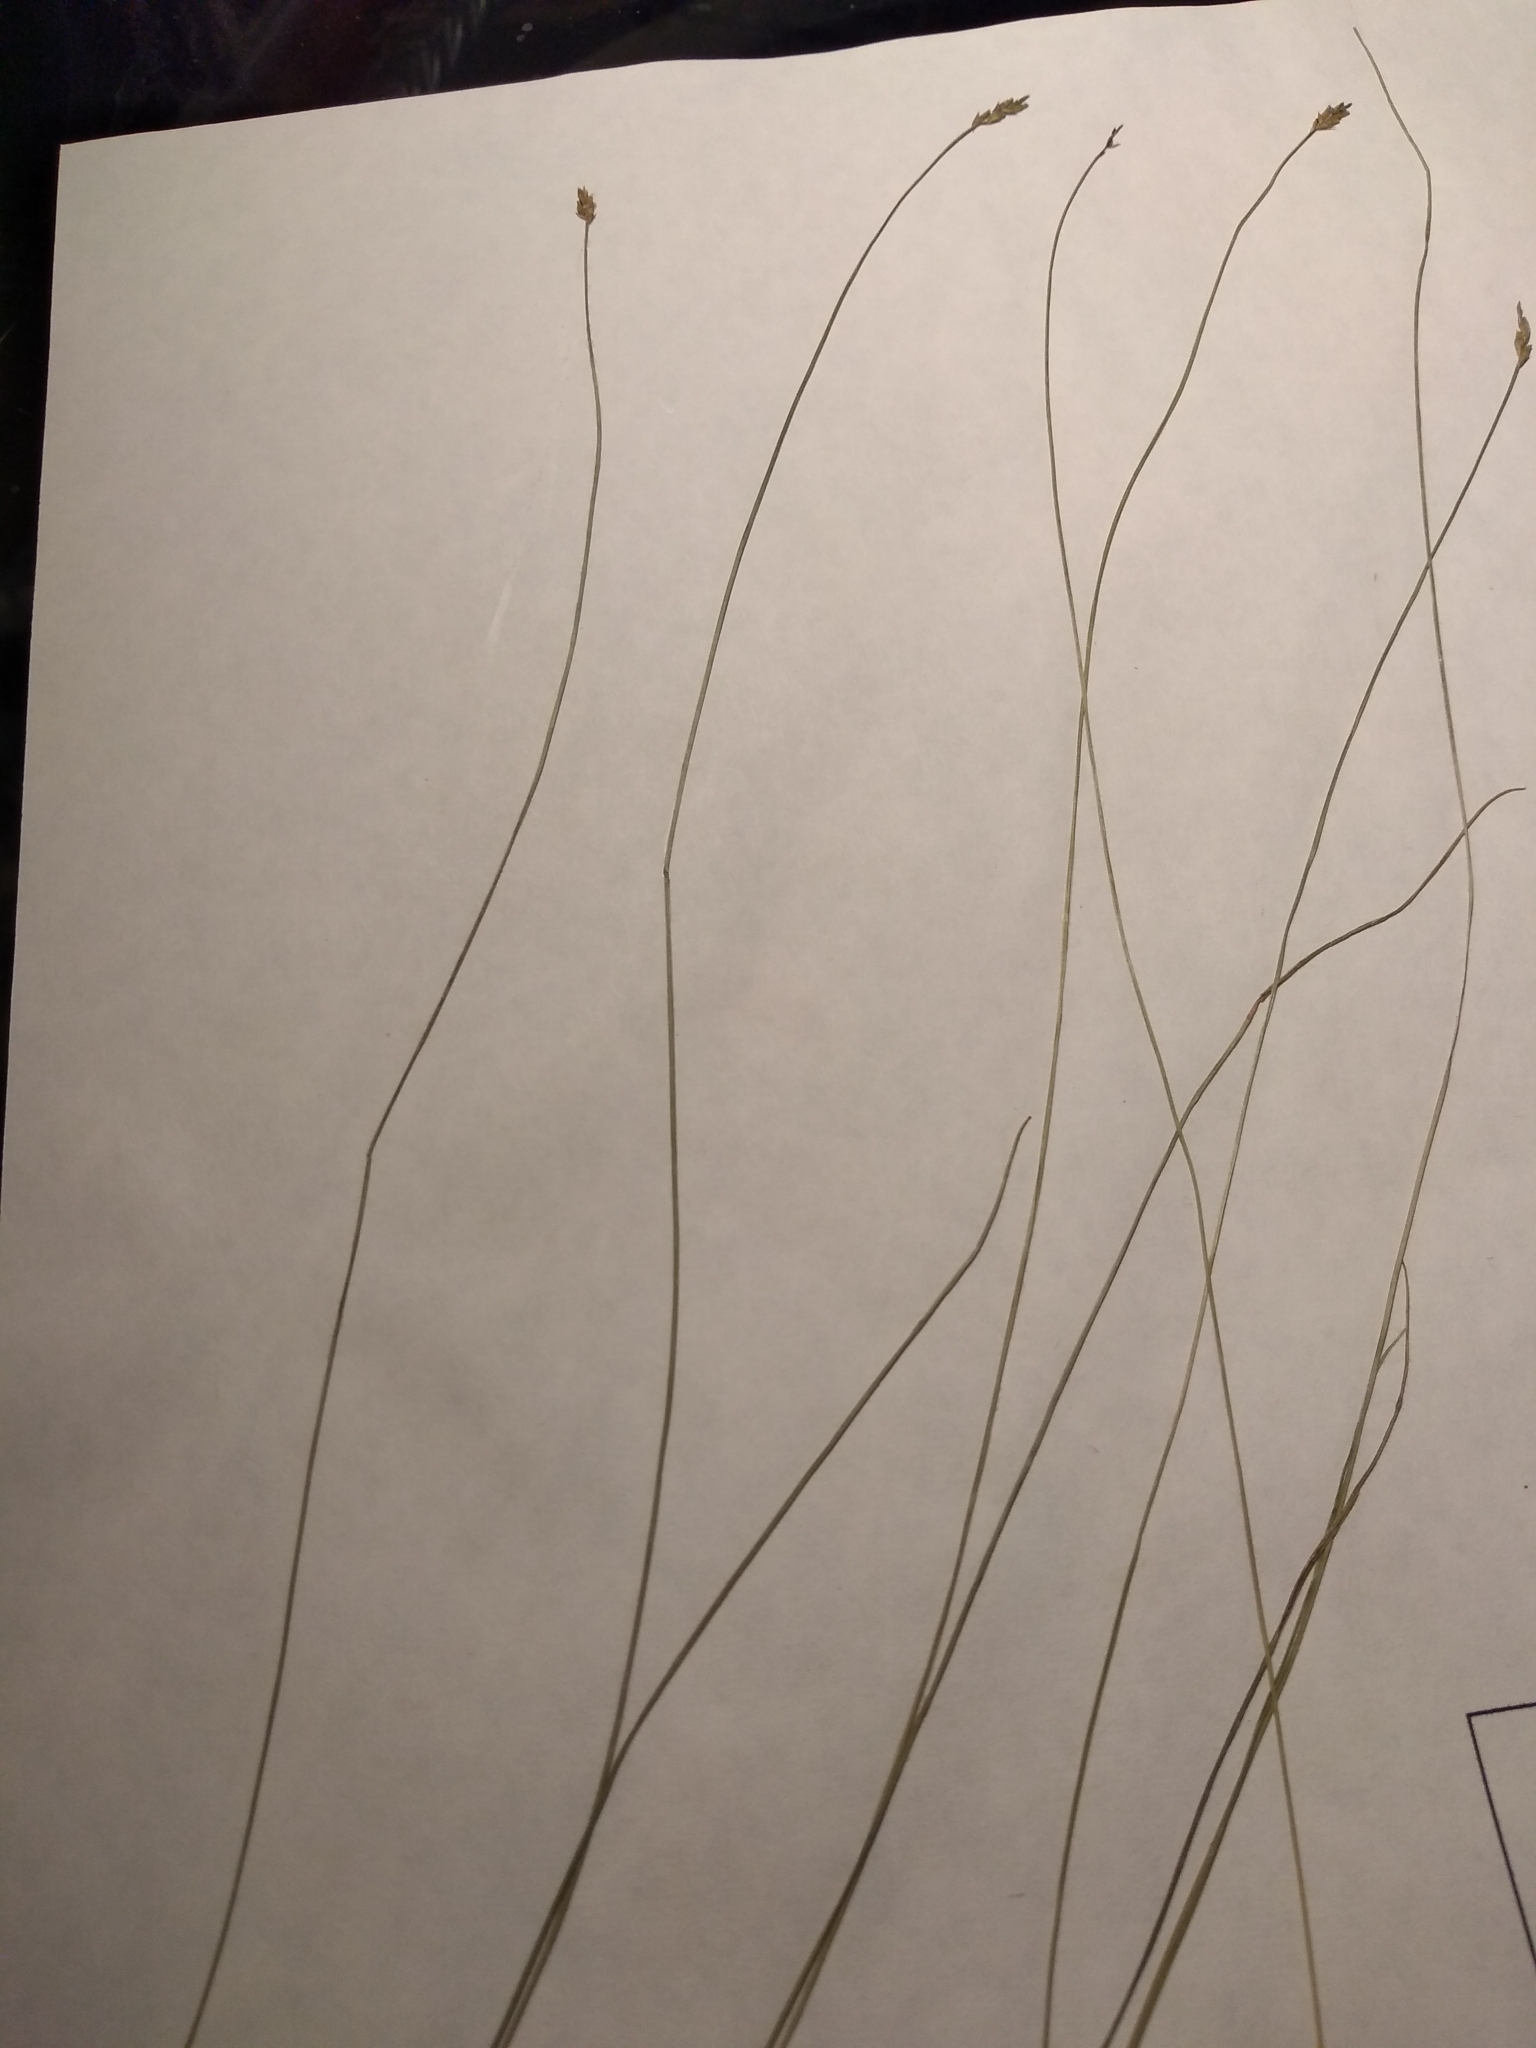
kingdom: Plantae
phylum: Tracheophyta
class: Liliopsida
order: Poales
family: Cyperaceae
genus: Carex
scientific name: Carex leptalea
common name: Bristly-stalked sedge
